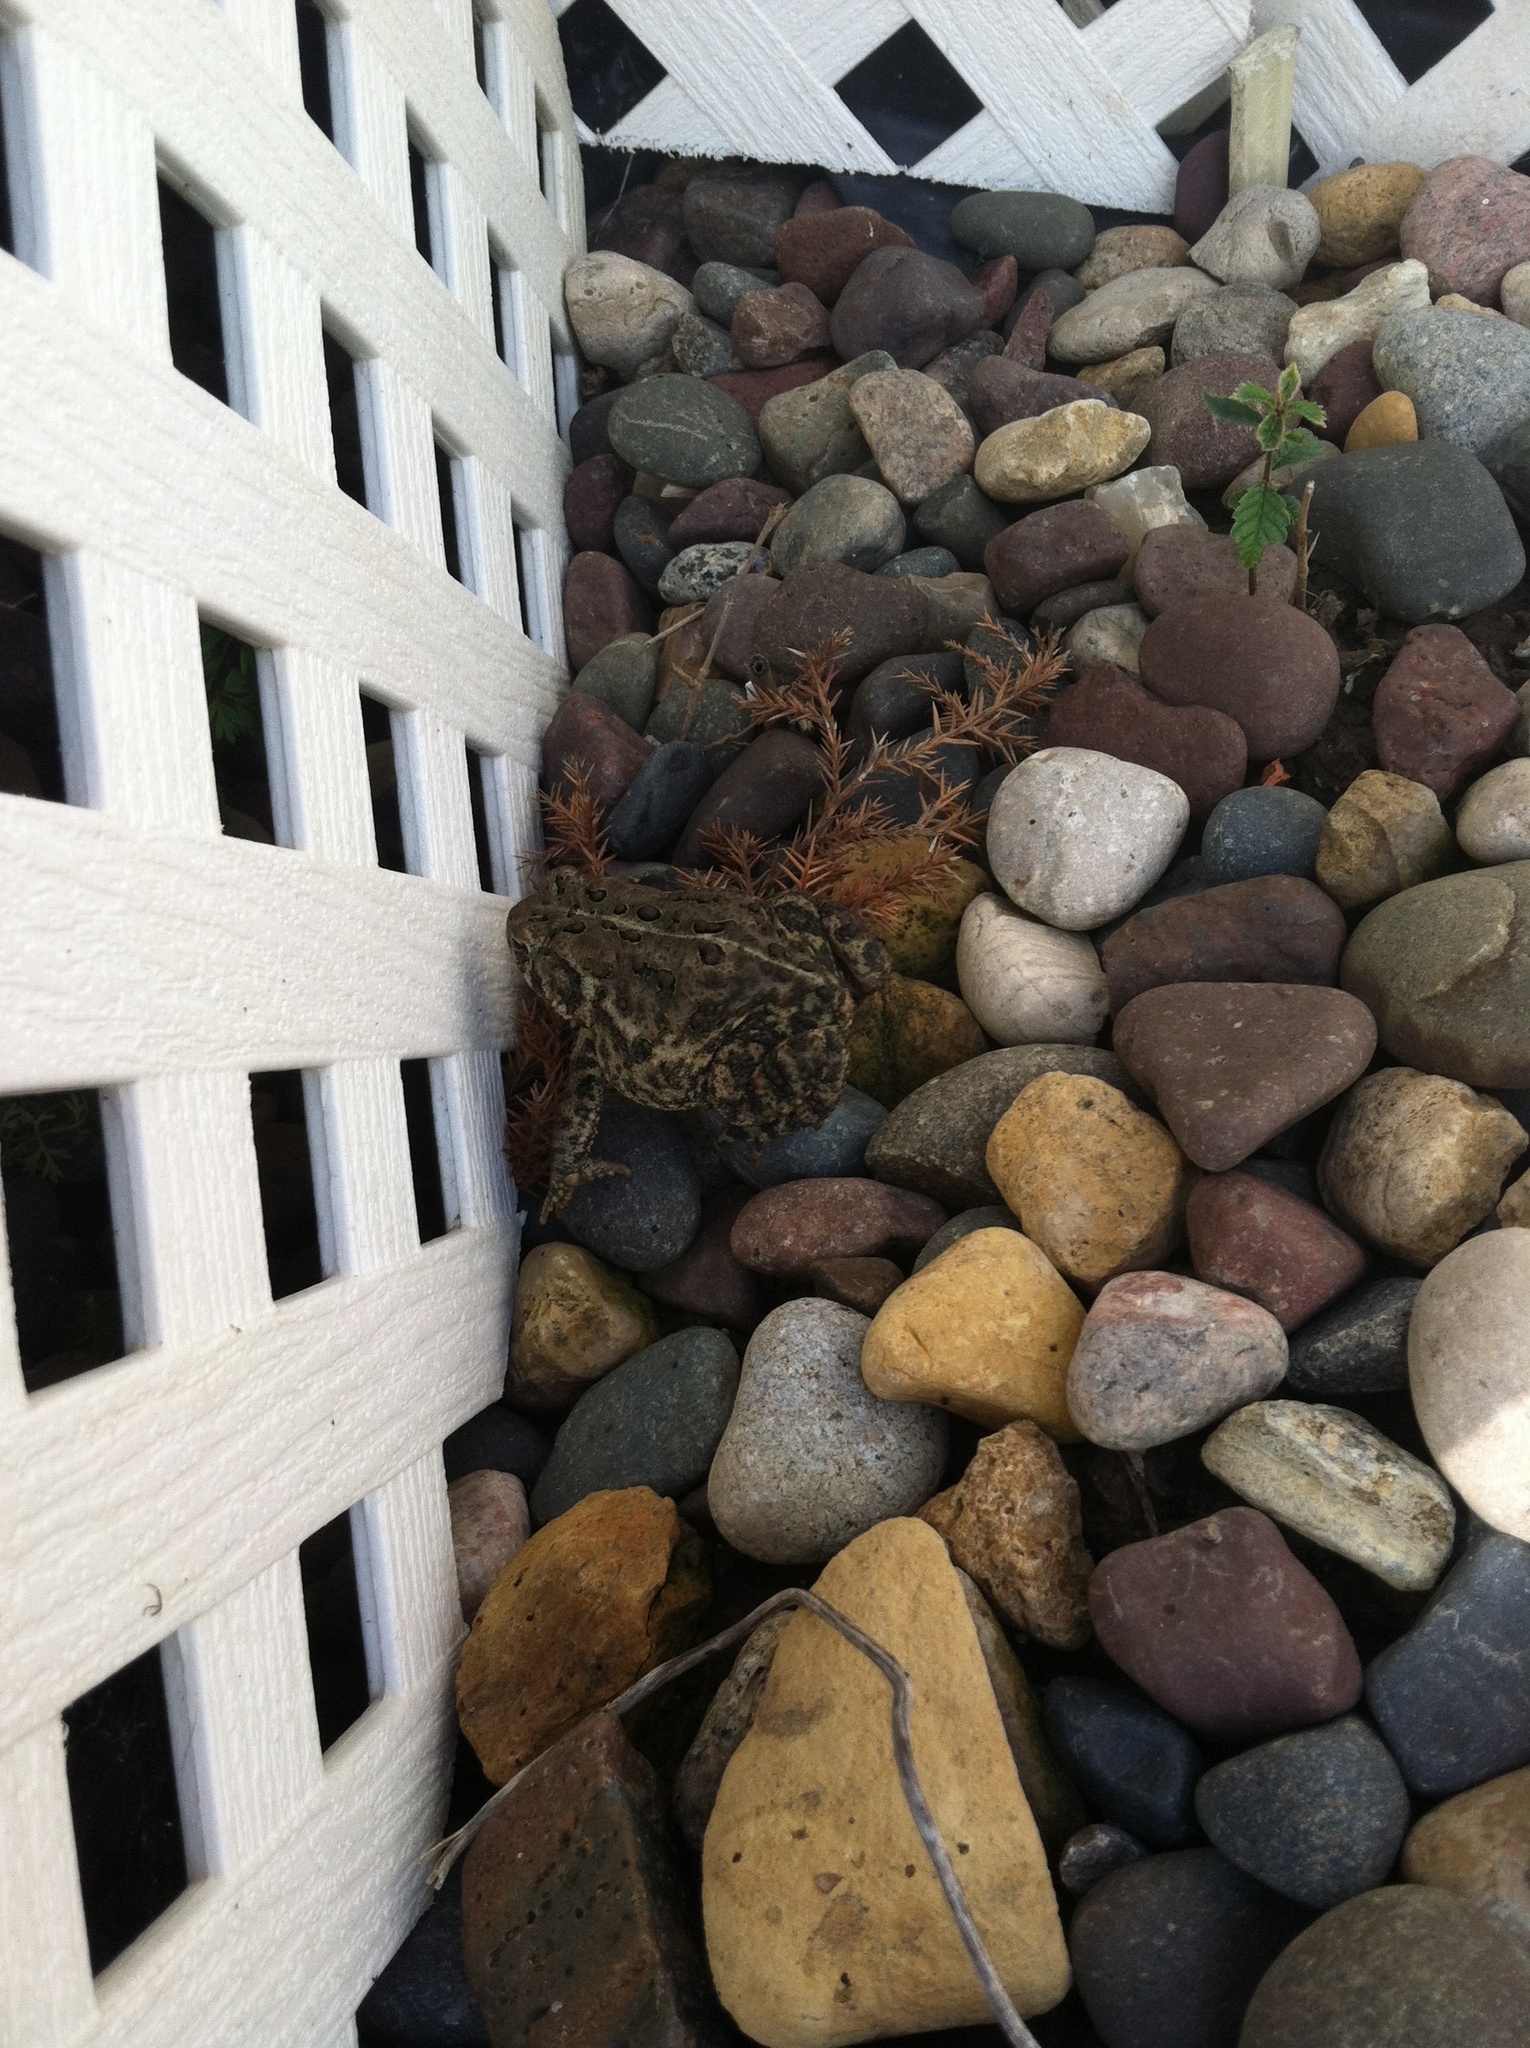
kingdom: Animalia
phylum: Chordata
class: Amphibia
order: Anura
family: Bufonidae
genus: Anaxyrus
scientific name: Anaxyrus americanus
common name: American toad
